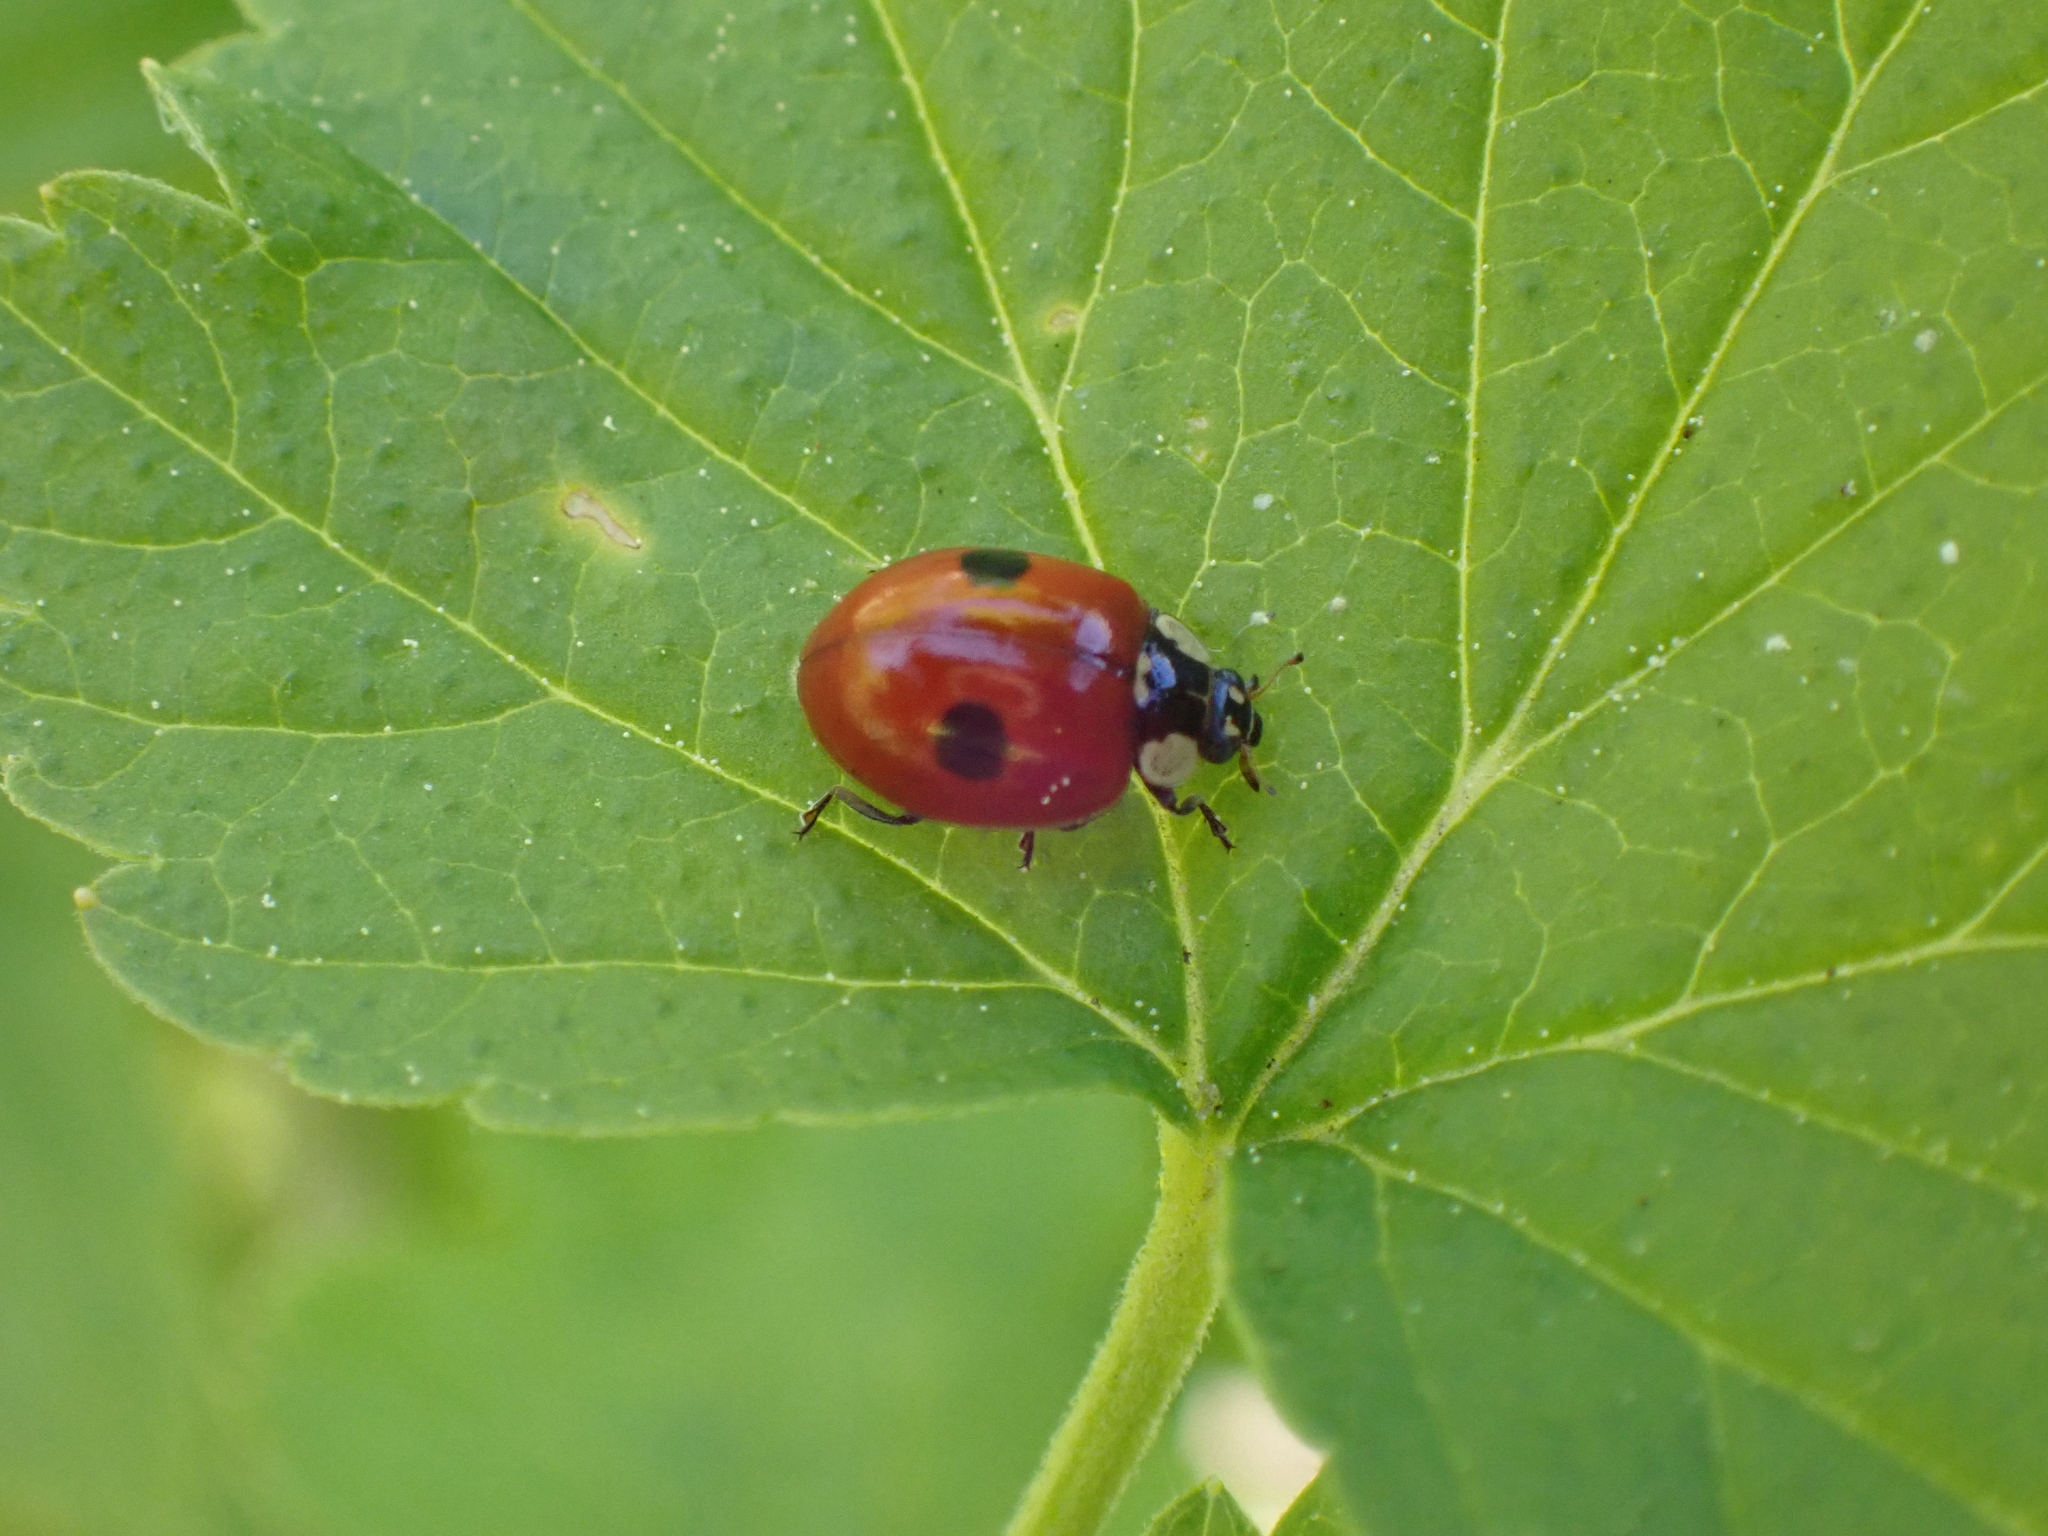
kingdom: Animalia
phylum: Arthropoda
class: Insecta
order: Coleoptera
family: Coccinellidae
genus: Adalia
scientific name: Adalia bipunctata
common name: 2-spot ladybird
